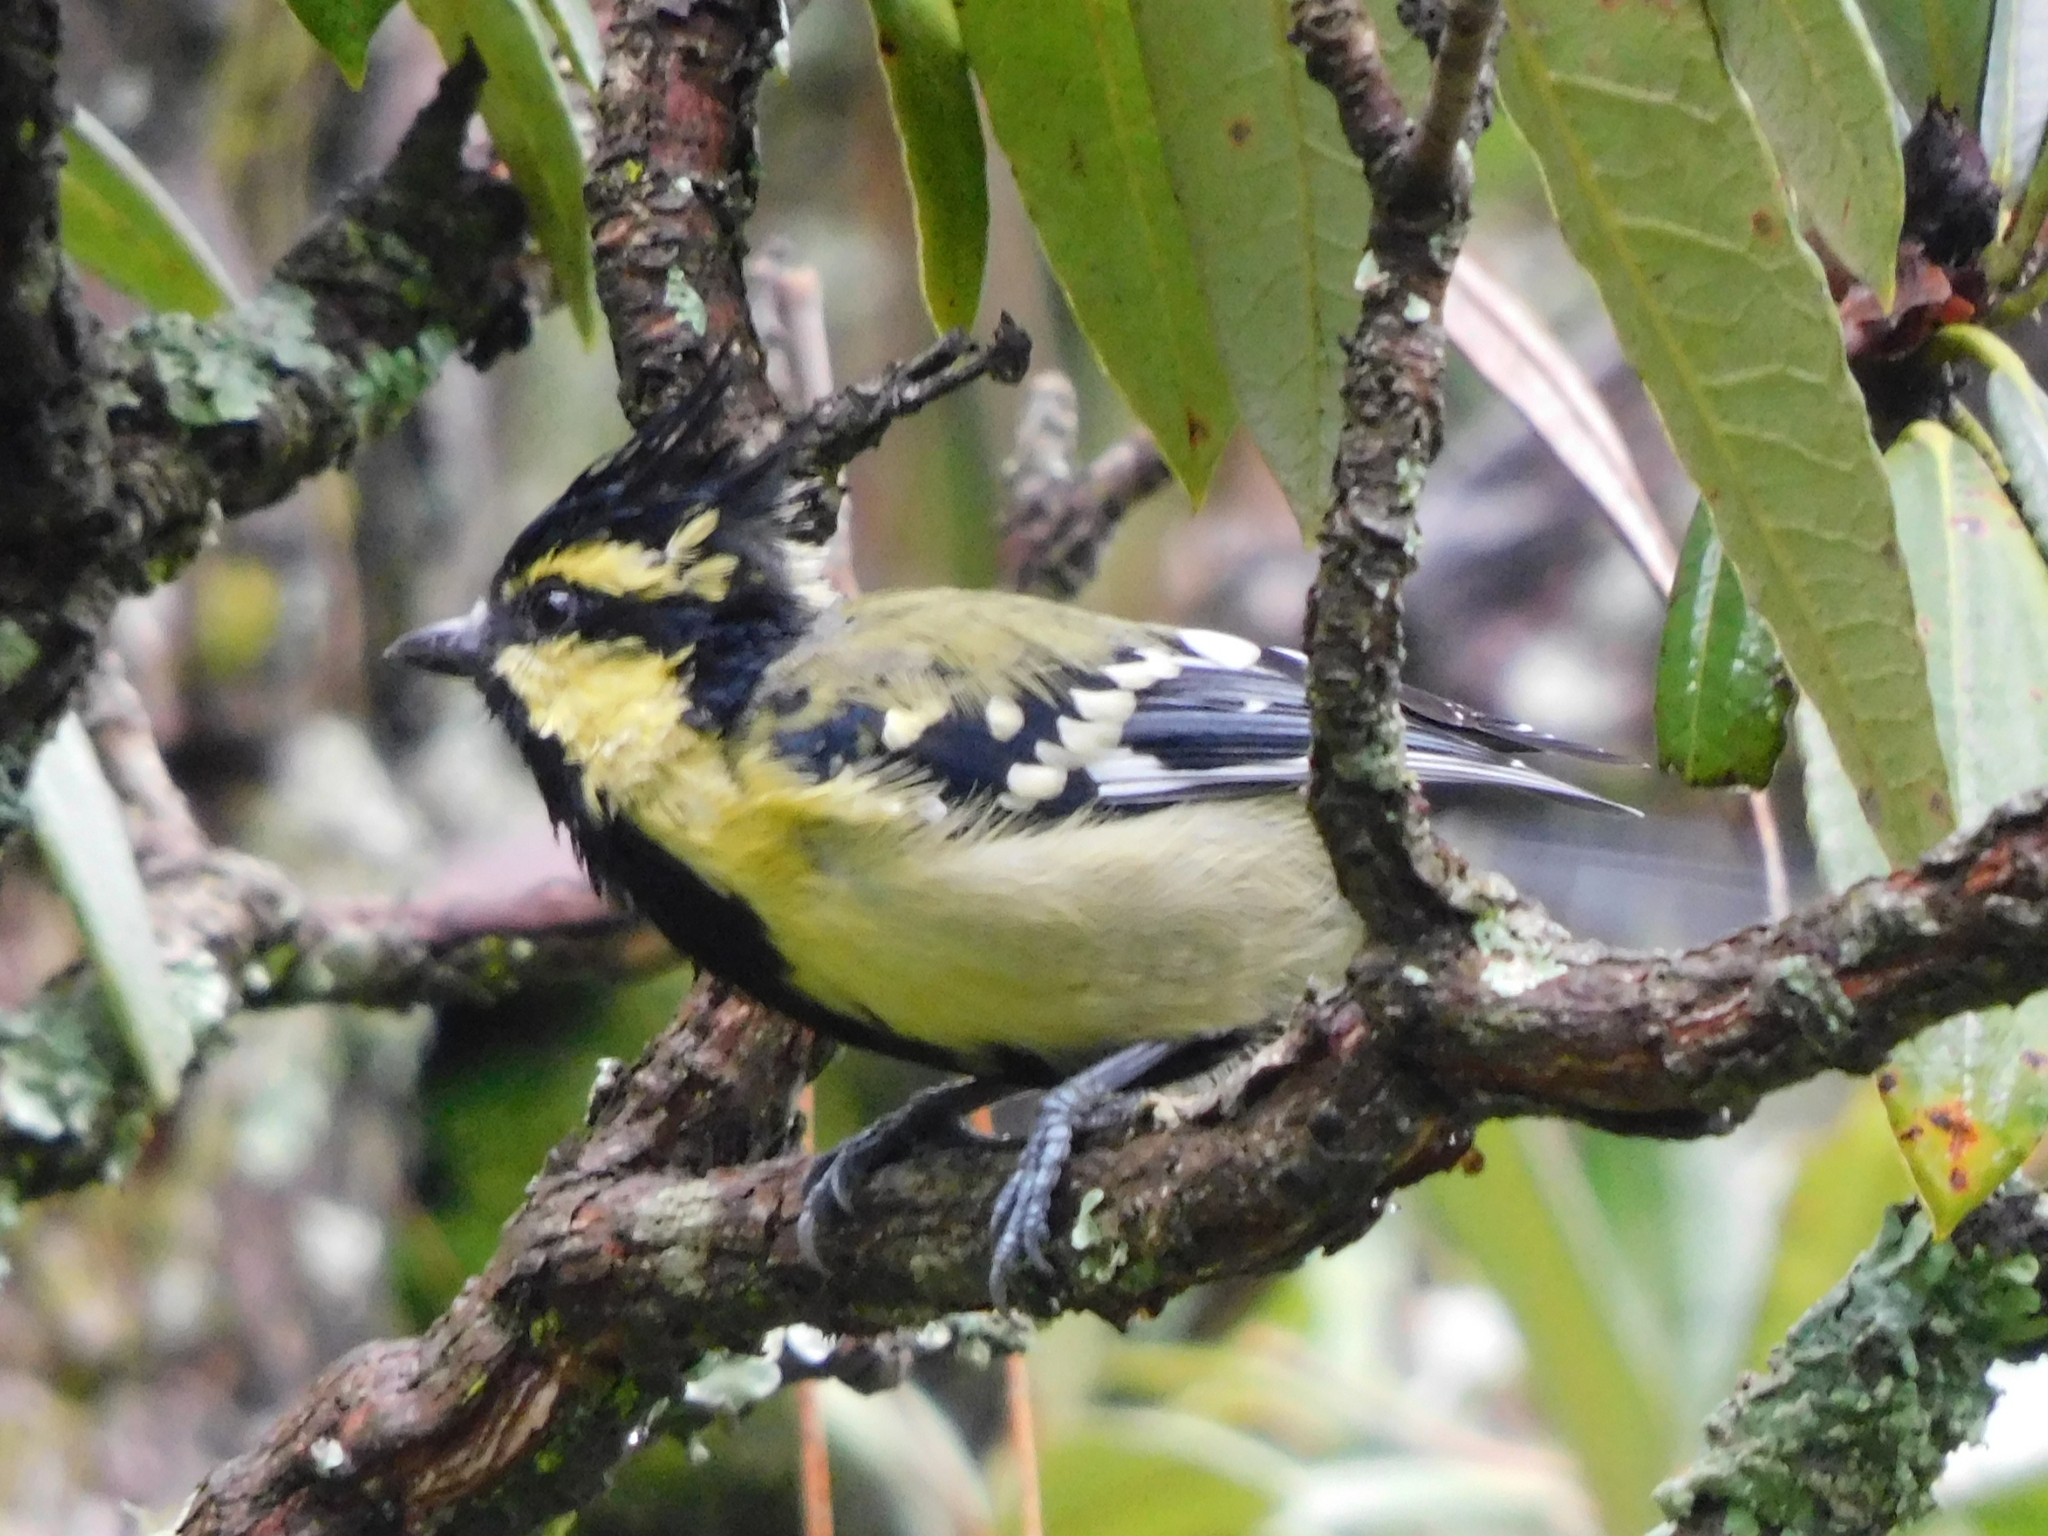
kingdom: Animalia
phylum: Chordata
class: Aves
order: Passeriformes
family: Paridae
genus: Parus
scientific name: Parus xanthogenys
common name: Black-lored tit
